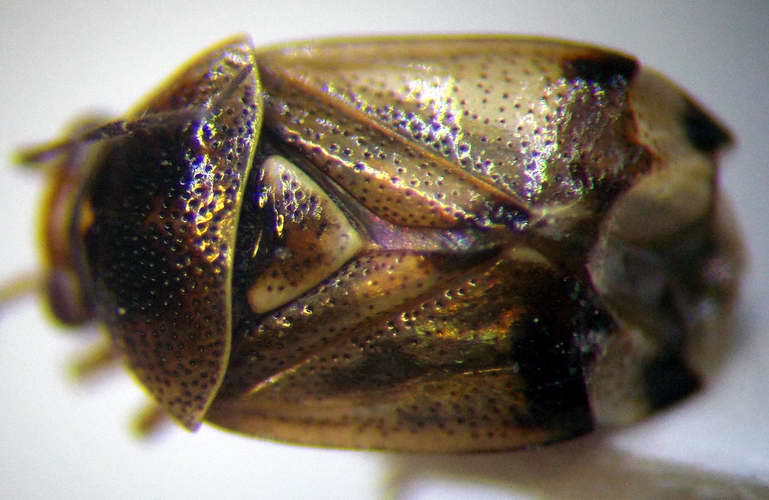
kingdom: Animalia
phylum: Arthropoda
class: Insecta
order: Hemiptera
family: Miridae
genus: Deraeocoris
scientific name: Deraeocoris serenus
